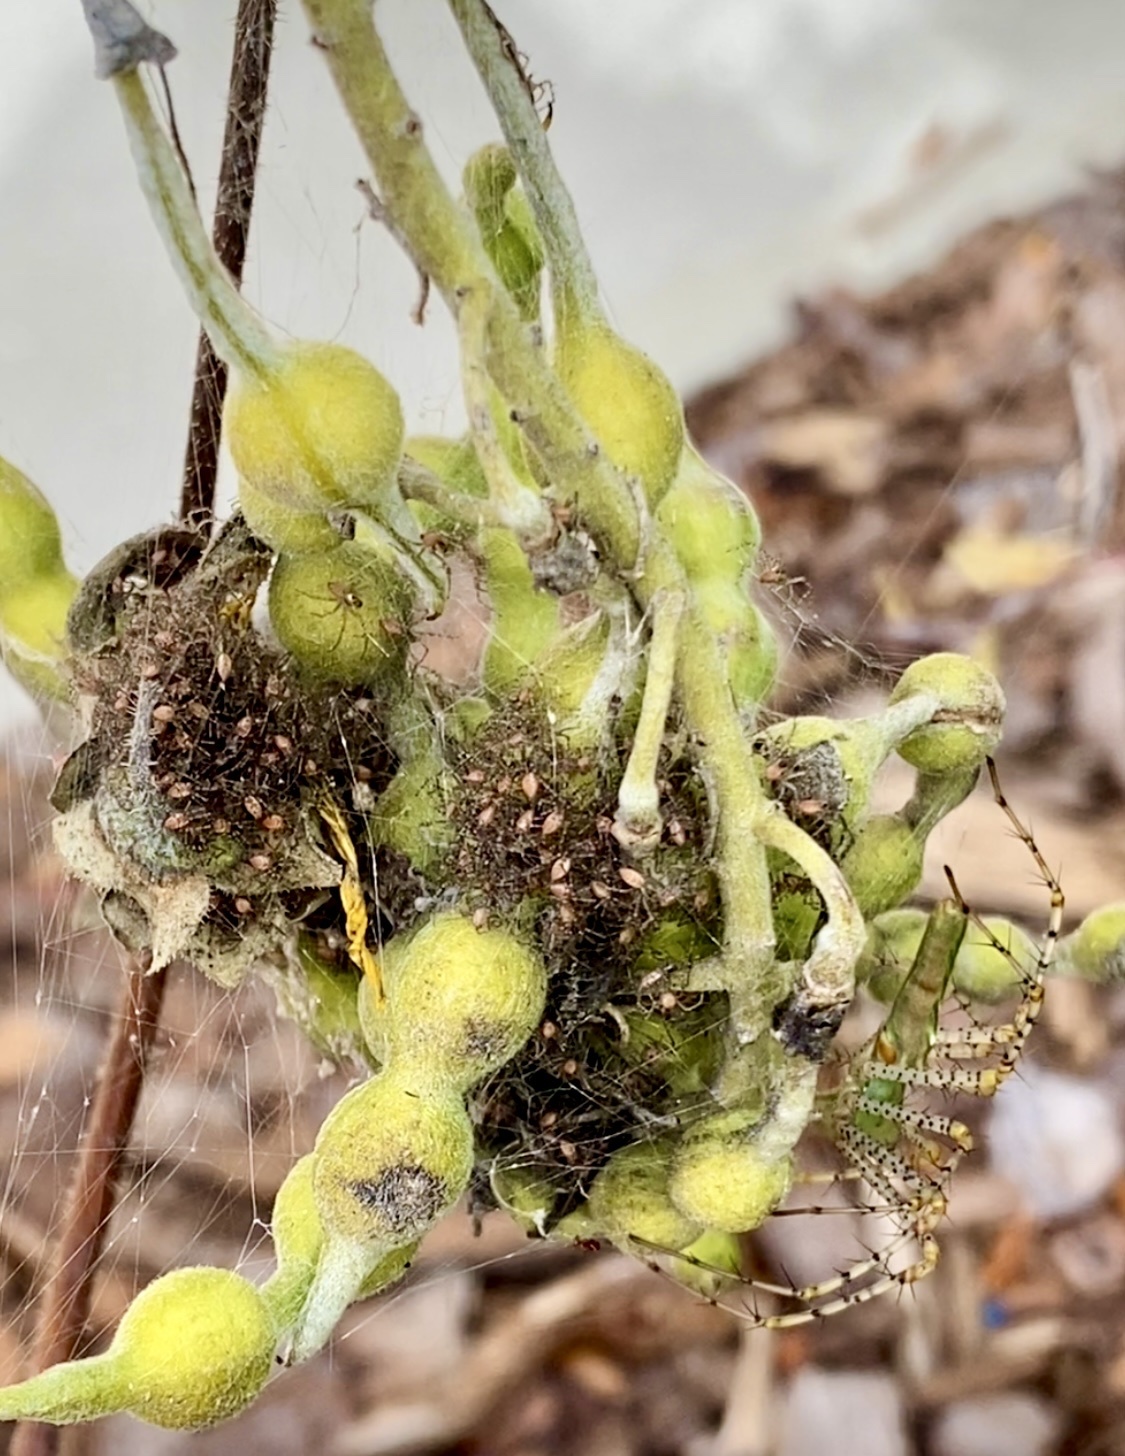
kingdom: Animalia
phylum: Arthropoda
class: Arachnida
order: Araneae
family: Oxyopidae
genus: Peucetia
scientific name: Peucetia viridans
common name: Lynx spiders
